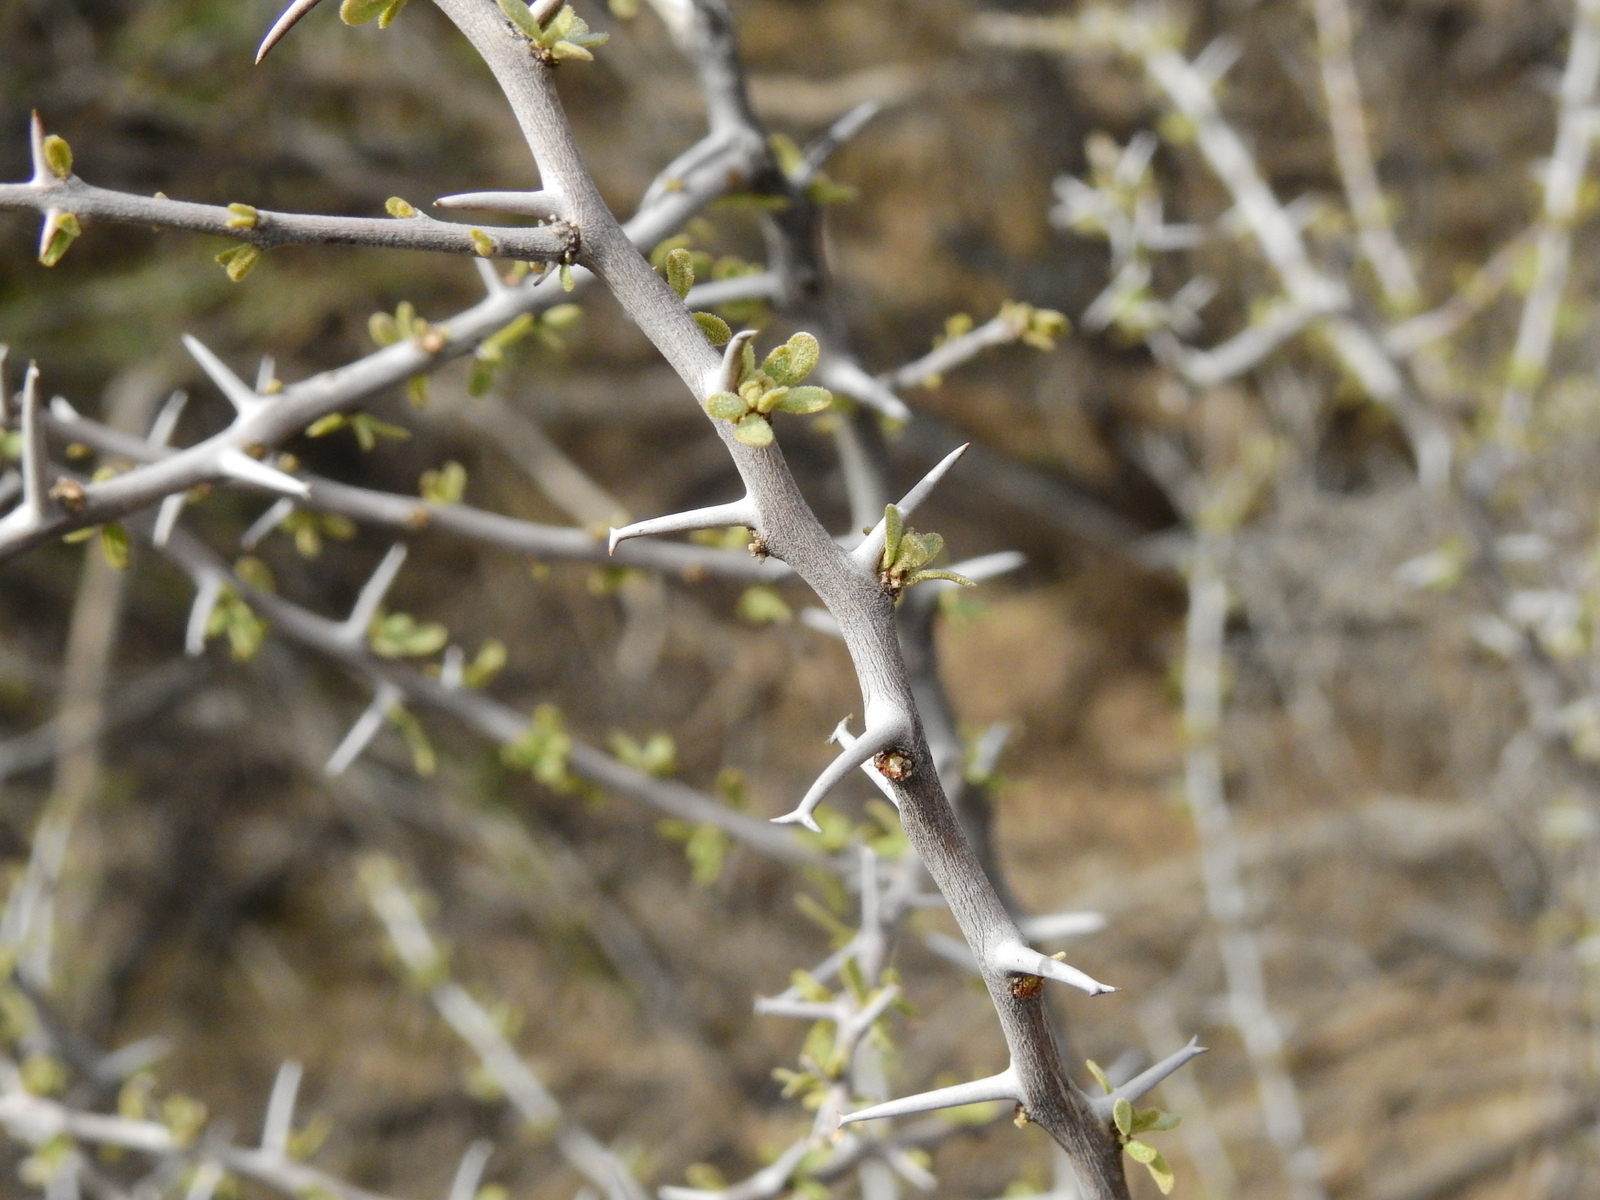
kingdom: Plantae
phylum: Tracheophyta
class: Magnoliopsida
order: Caryophyllales
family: Nyctaginaceae
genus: Bougainvillea
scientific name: Bougainvillea spinosa
